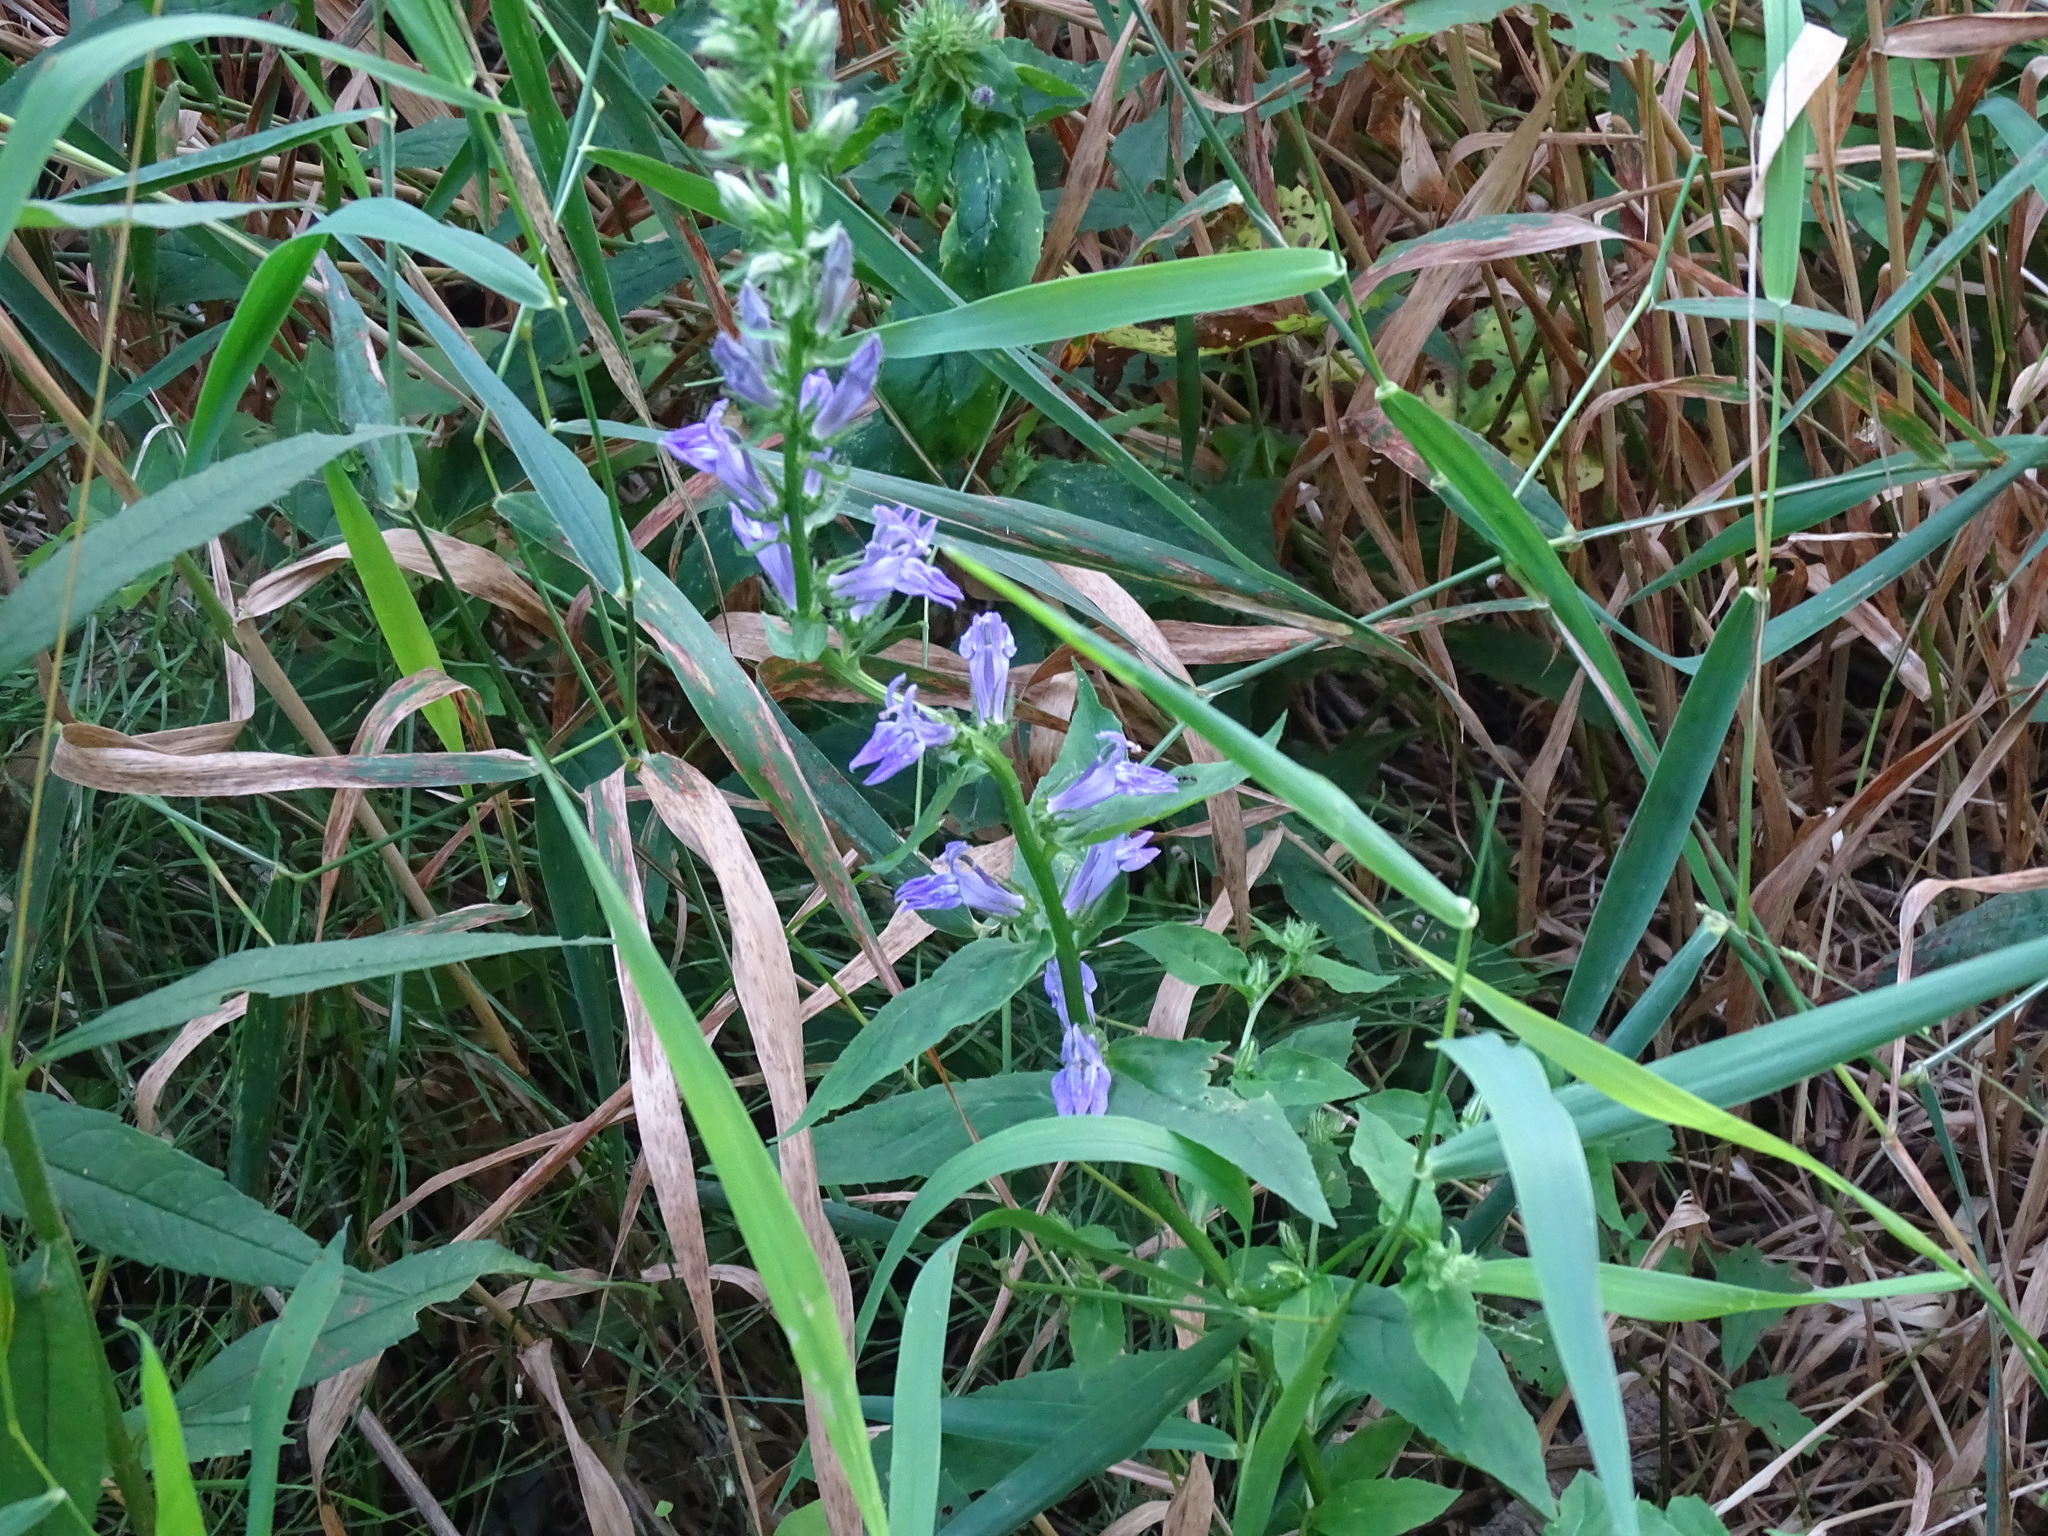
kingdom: Plantae
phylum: Tracheophyta
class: Magnoliopsida
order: Asterales
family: Campanulaceae
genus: Lobelia
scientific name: Lobelia siphilitica
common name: Great lobelia
